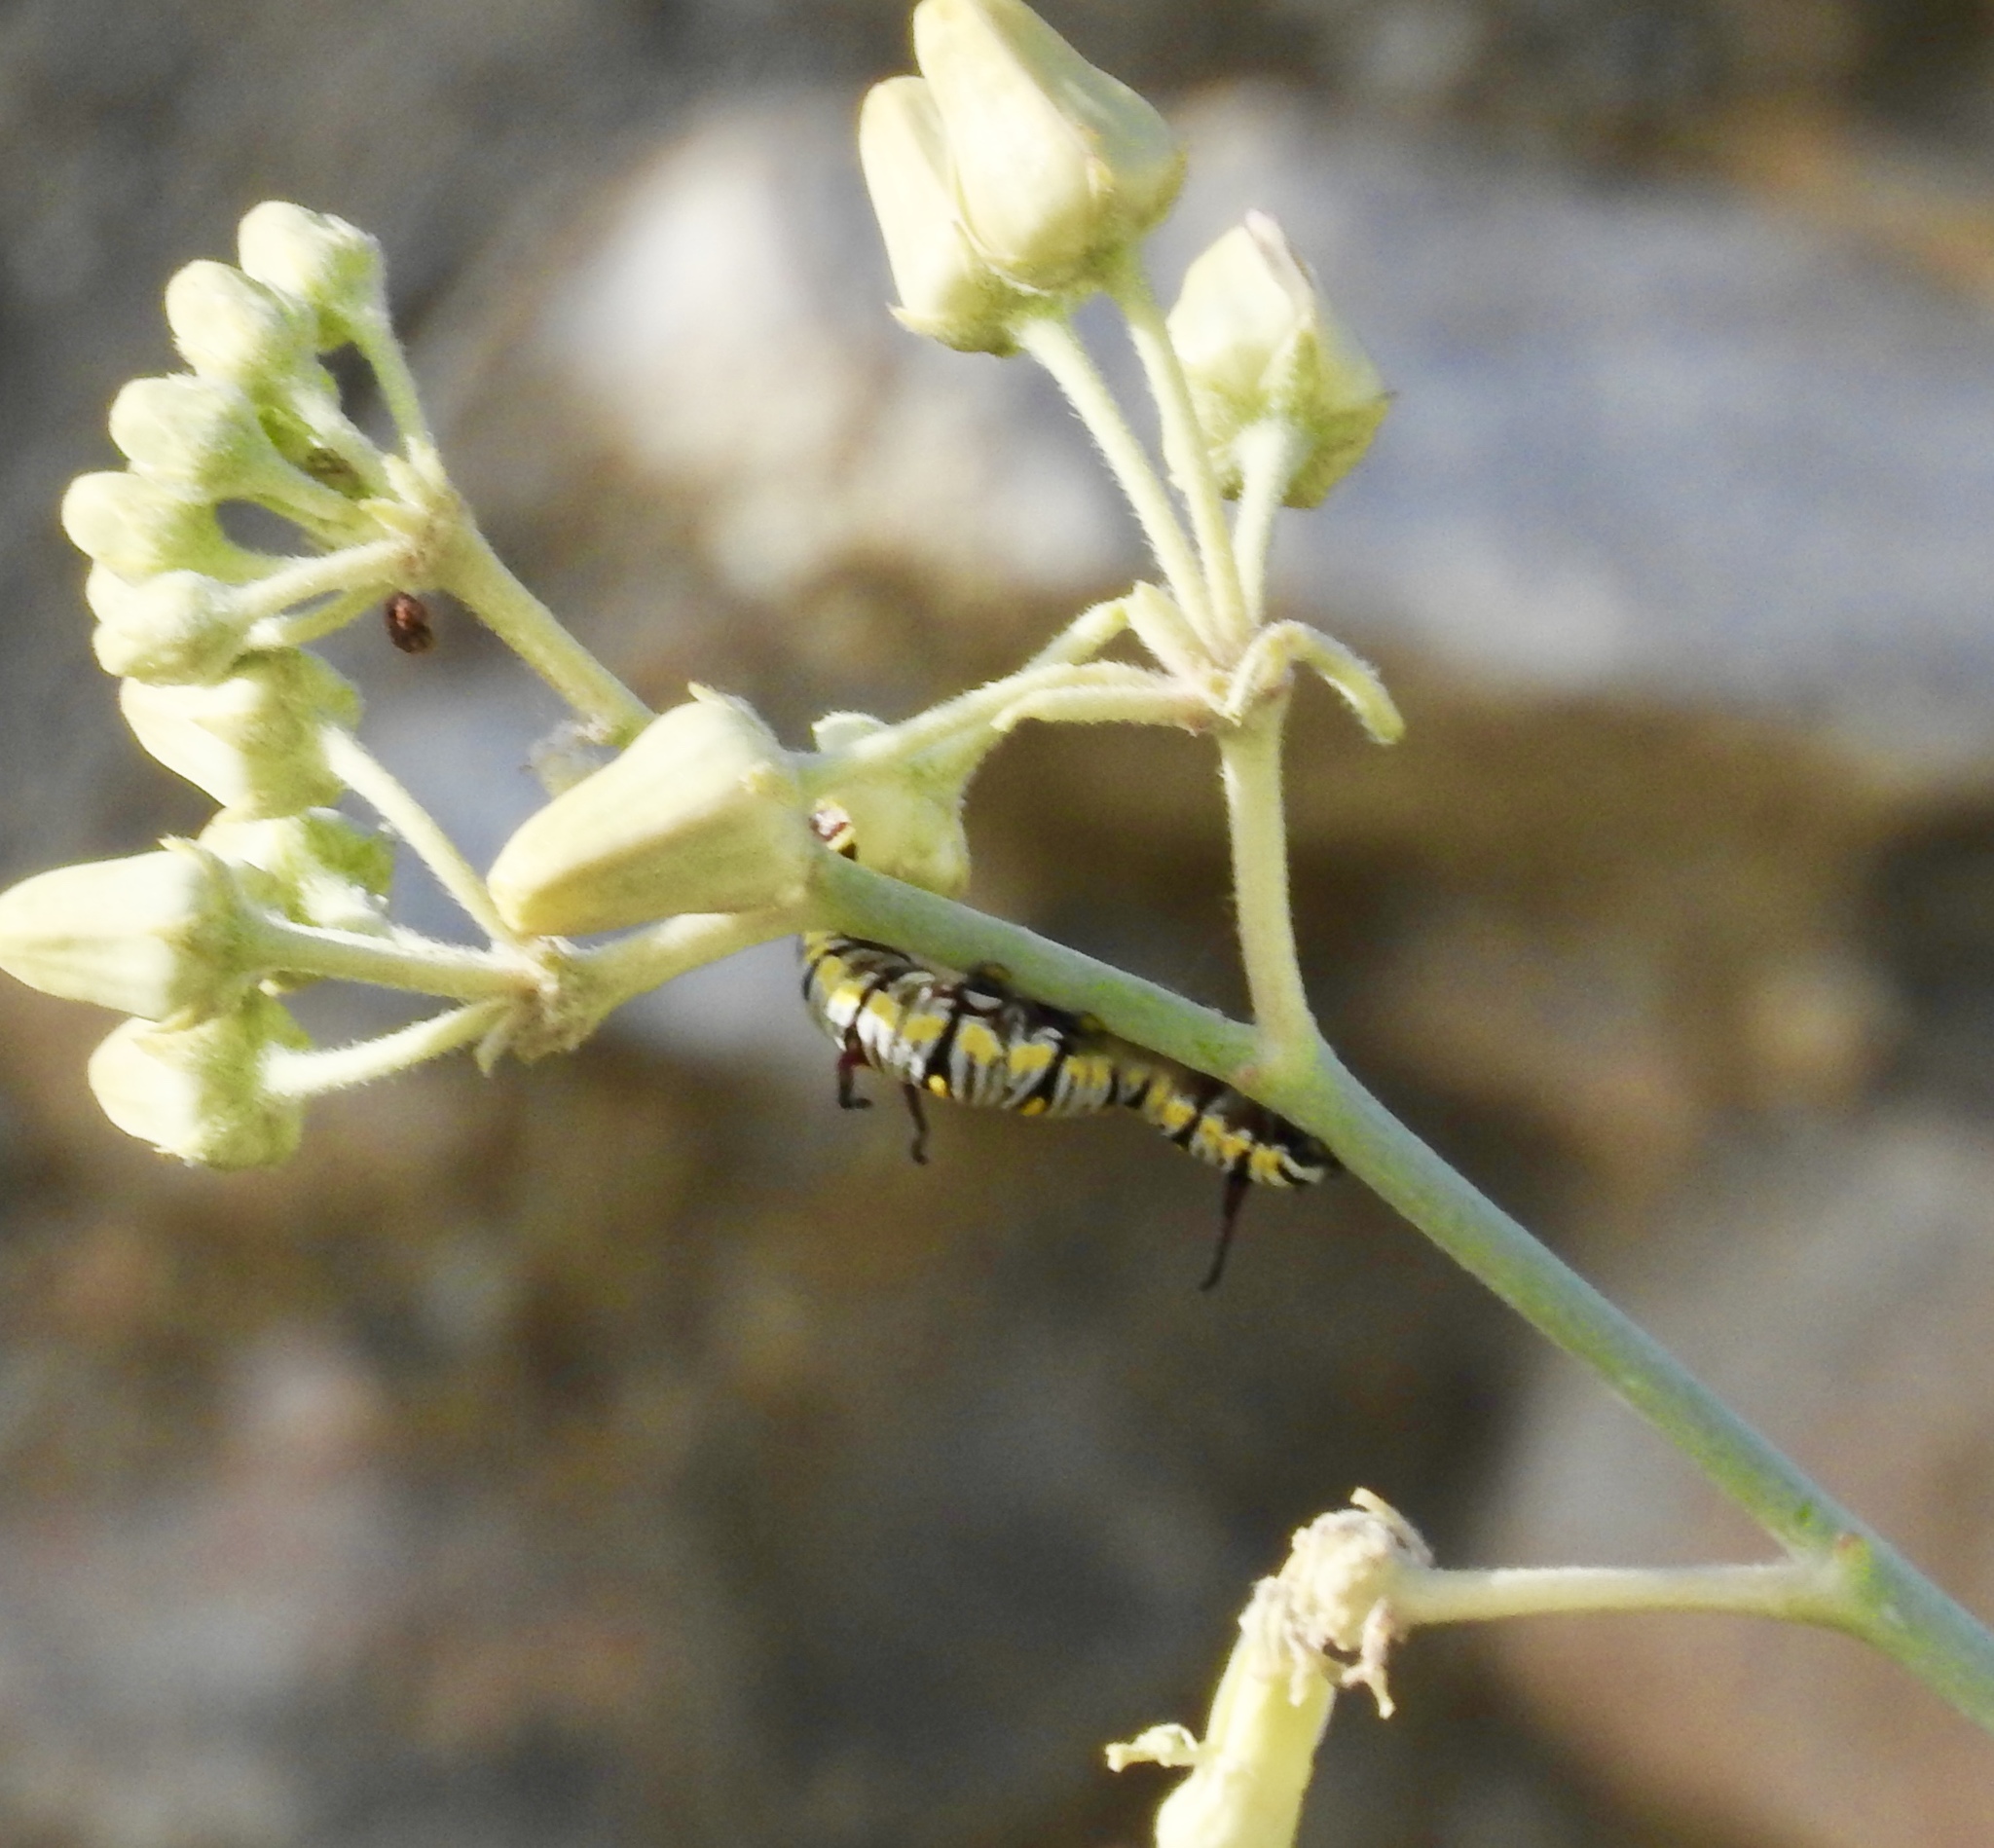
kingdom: Animalia
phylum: Arthropoda
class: Insecta
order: Lepidoptera
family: Nymphalidae
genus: Danaus
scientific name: Danaus gilippus
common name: Queen
